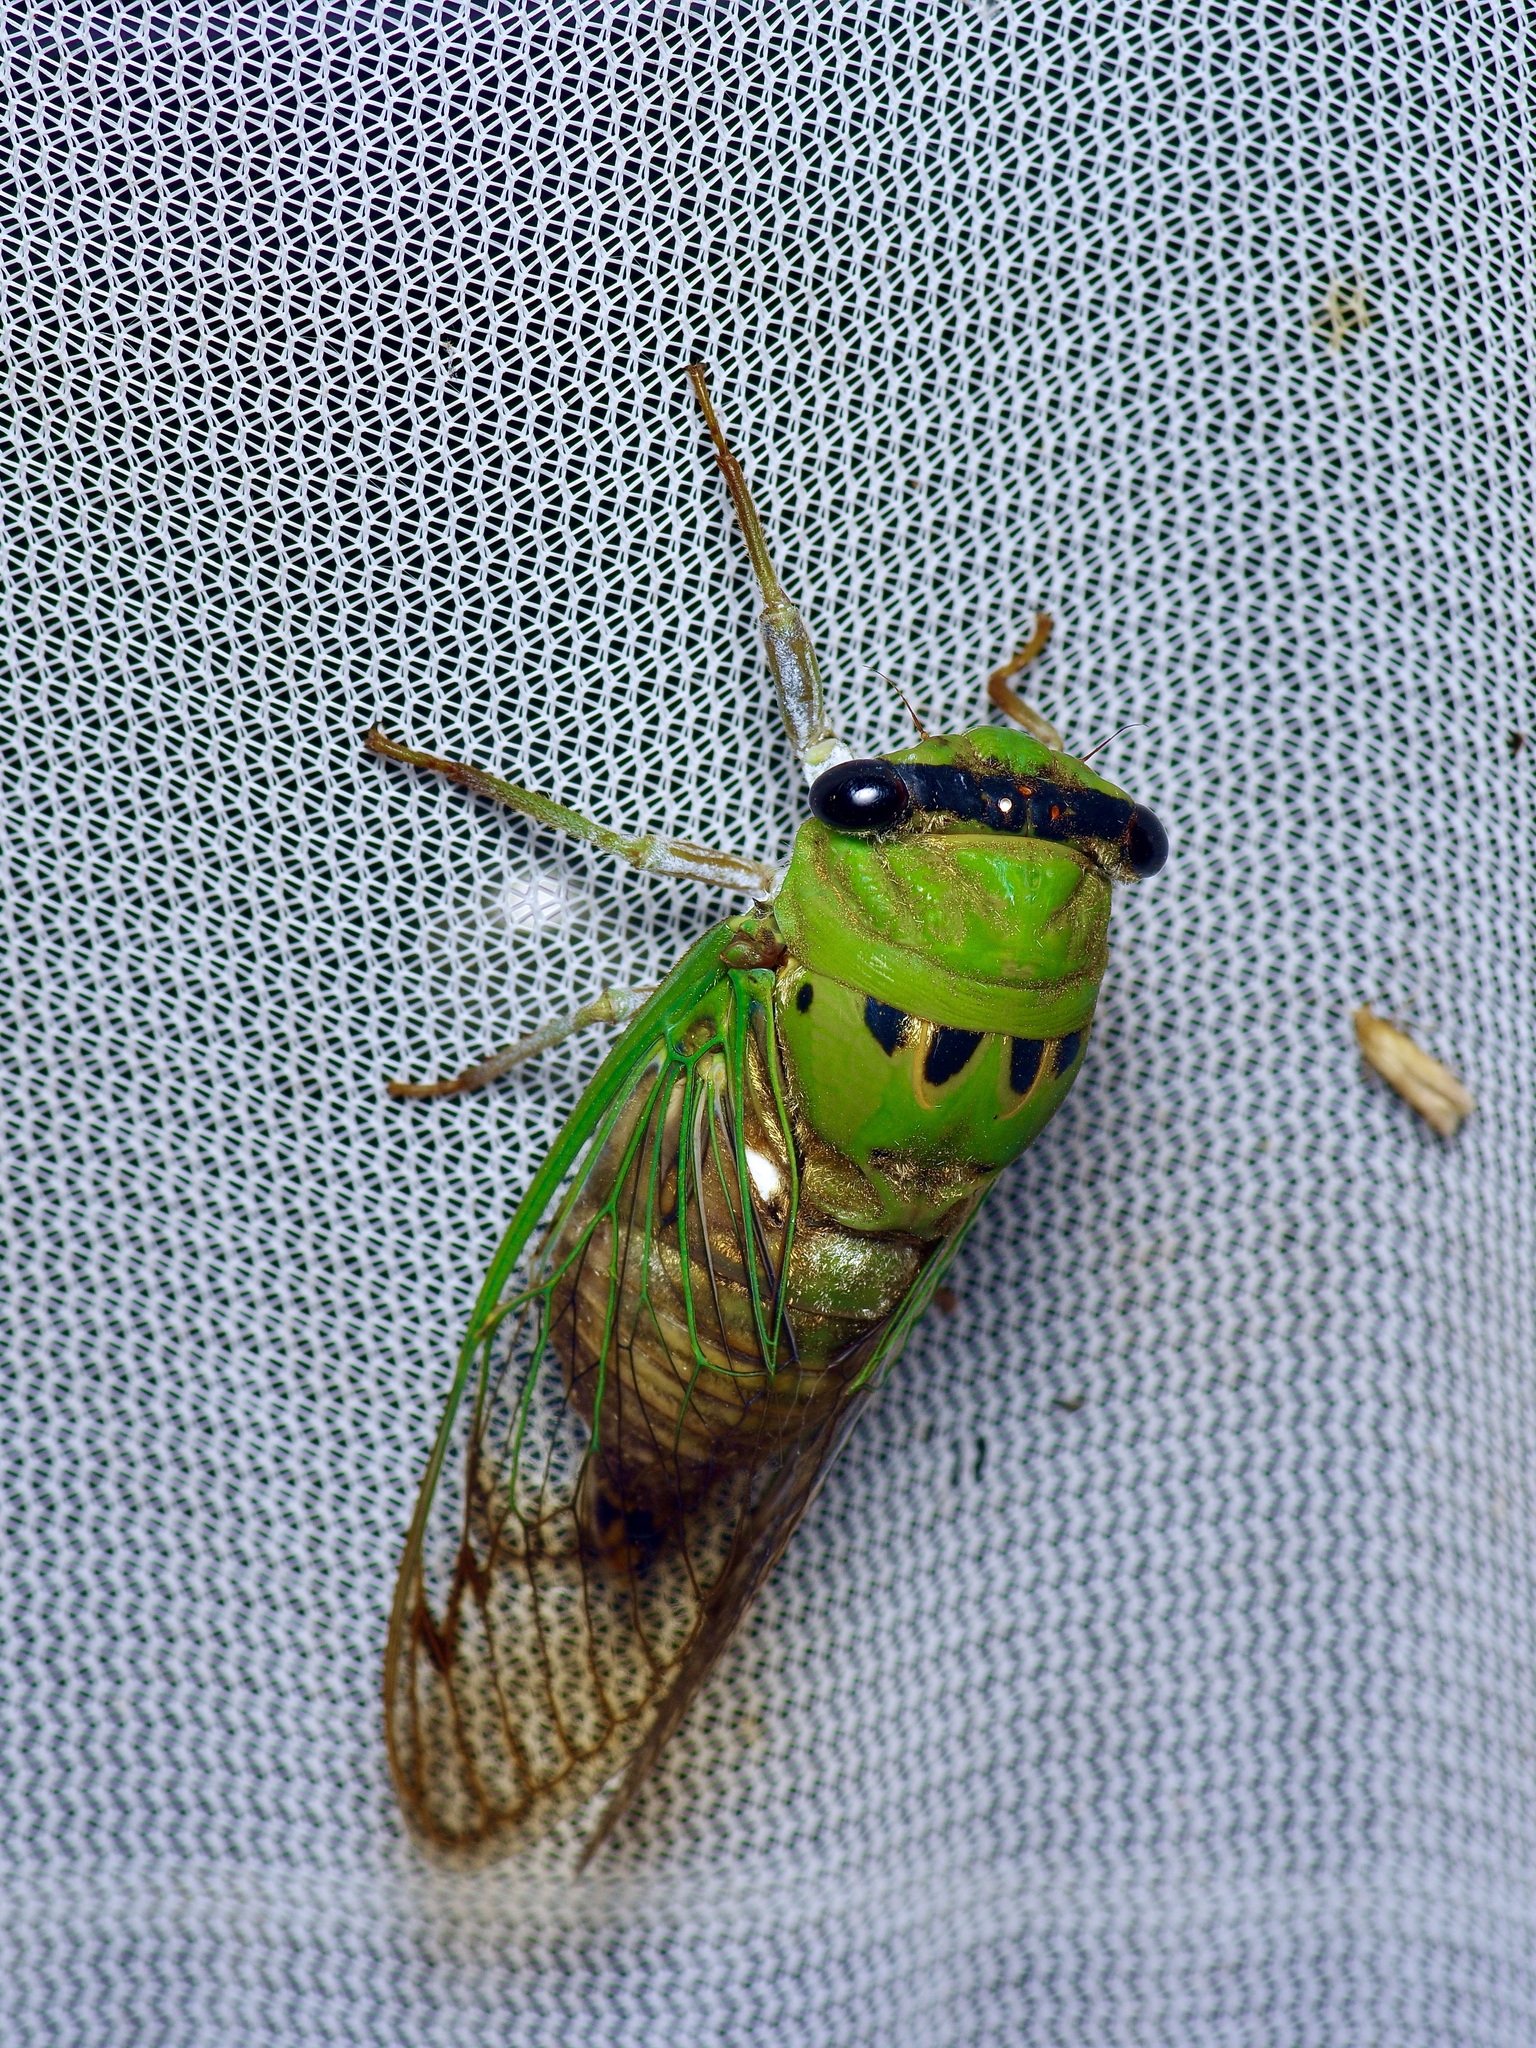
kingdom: Animalia
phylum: Arthropoda
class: Insecta
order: Hemiptera
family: Cicadidae
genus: Neotibicen
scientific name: Neotibicen superbus
